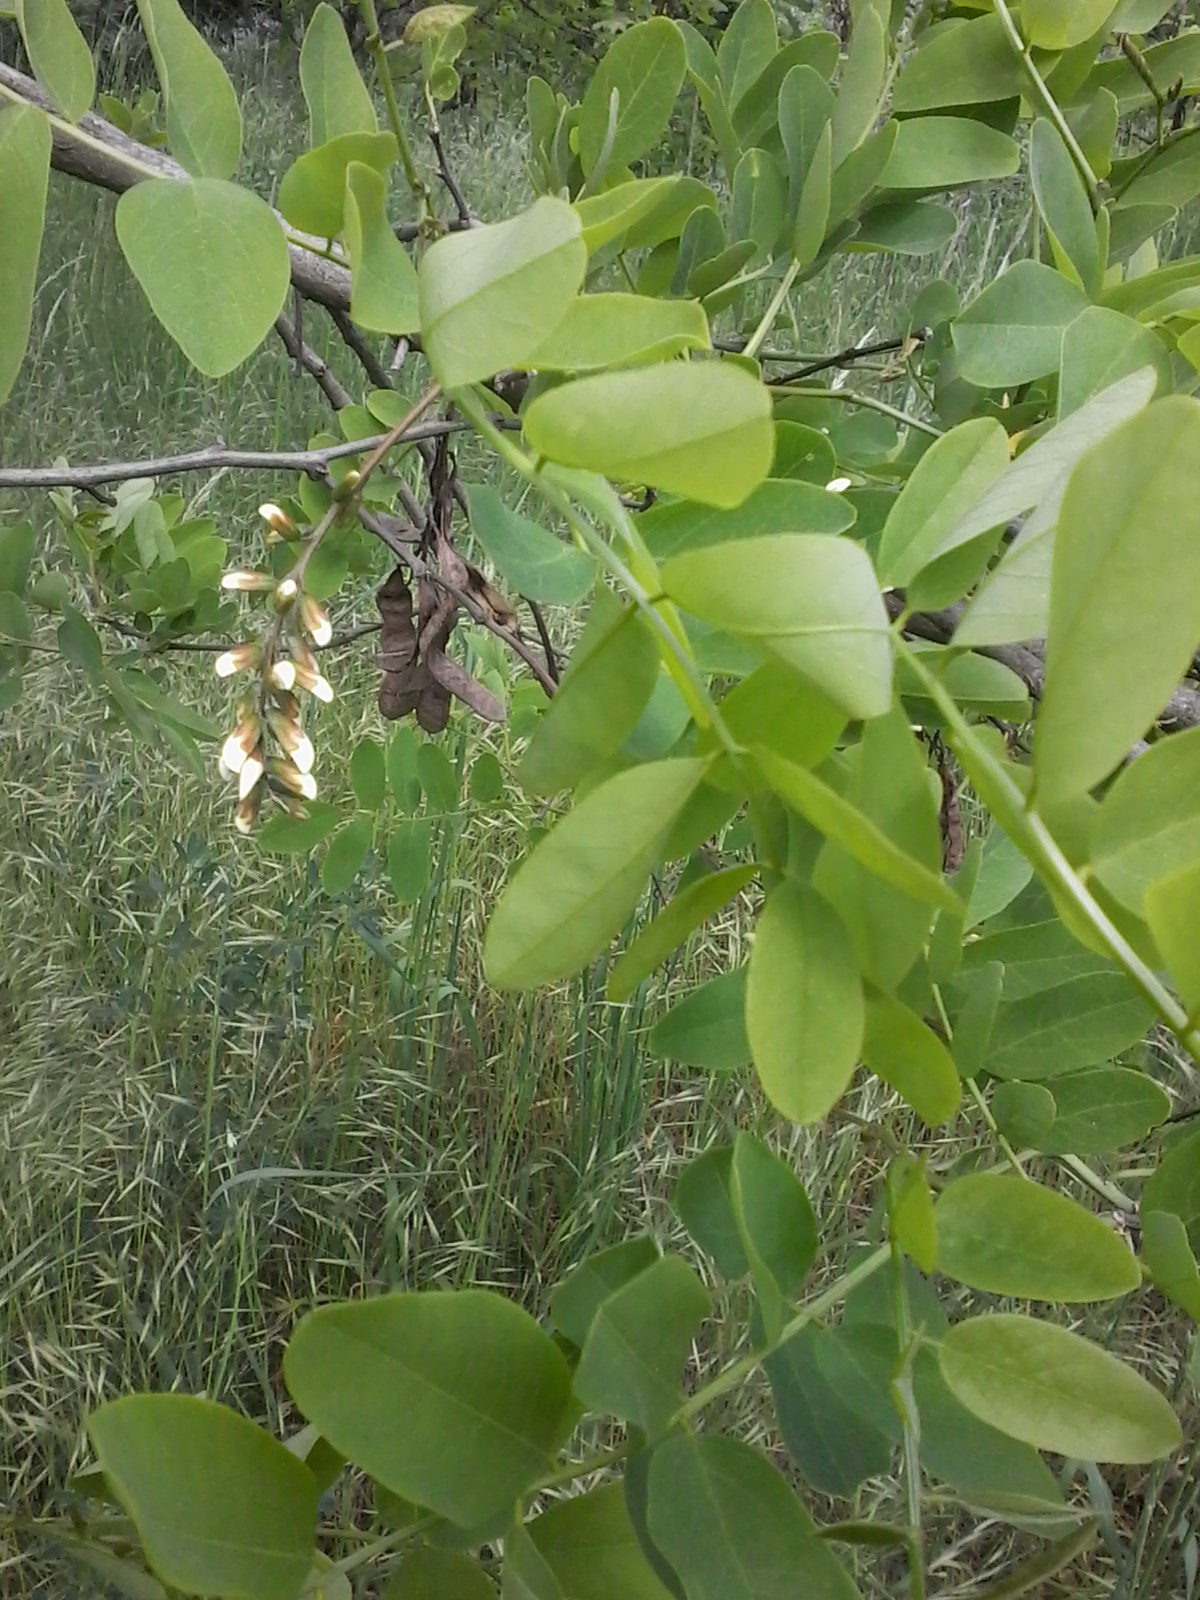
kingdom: Plantae
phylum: Tracheophyta
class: Magnoliopsida
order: Fabales
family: Fabaceae
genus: Robinia
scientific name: Robinia pseudoacacia
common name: Black locust
